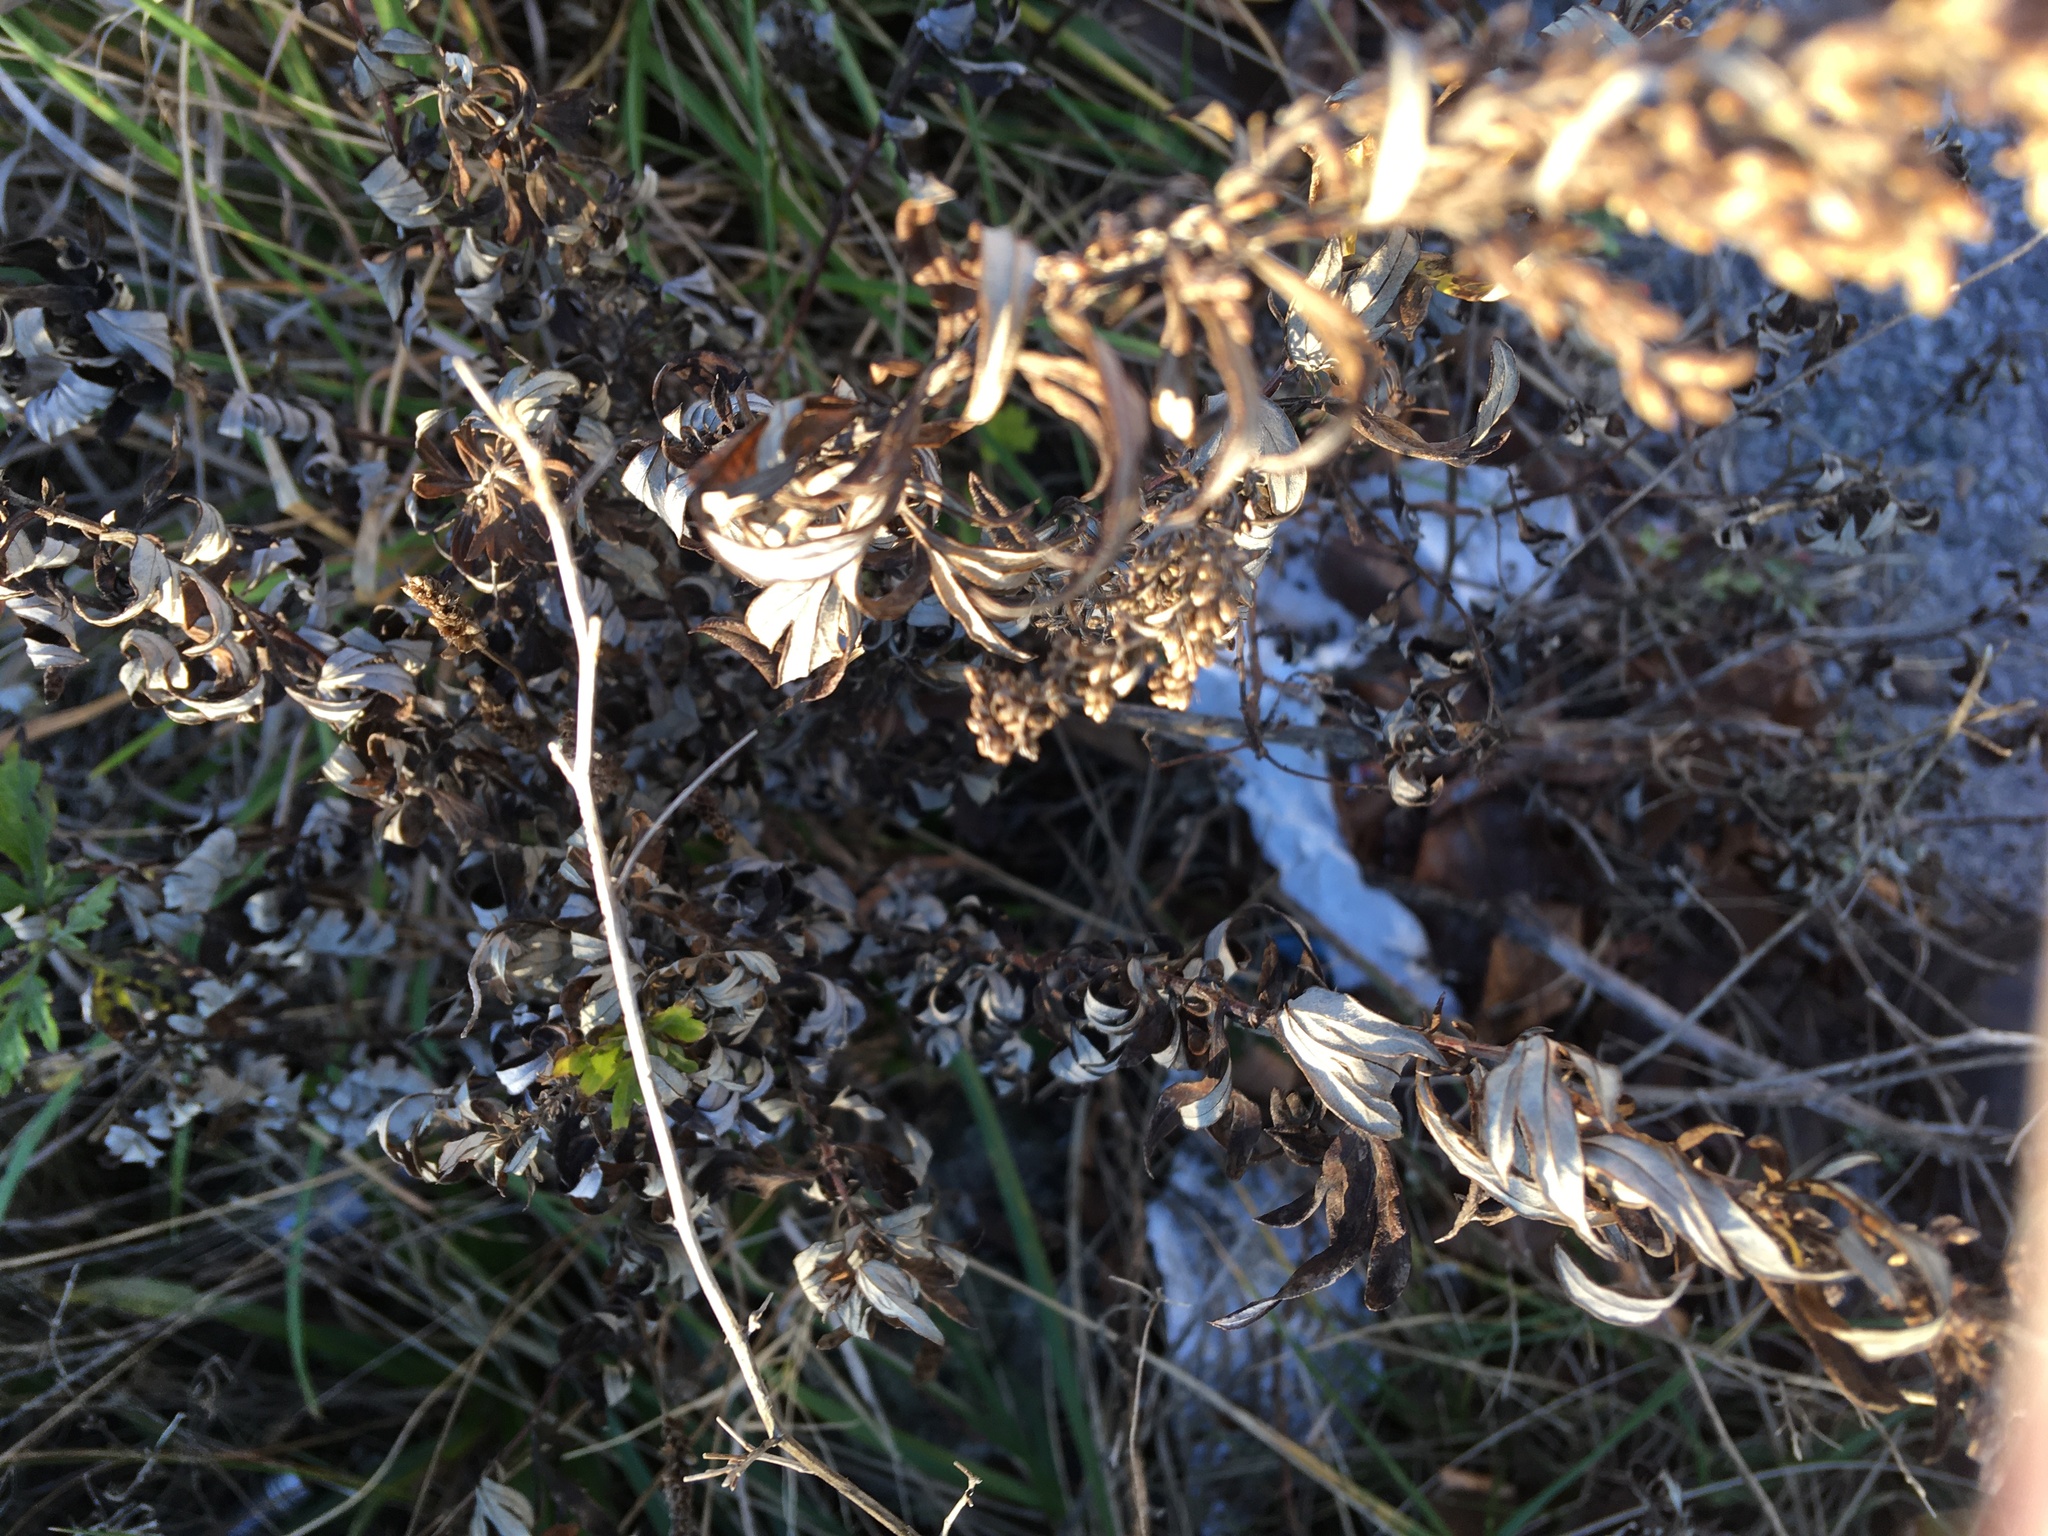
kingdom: Plantae
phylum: Tracheophyta
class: Magnoliopsida
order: Asterales
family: Asteraceae
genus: Artemisia
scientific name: Artemisia vulgaris
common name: Mugwort
